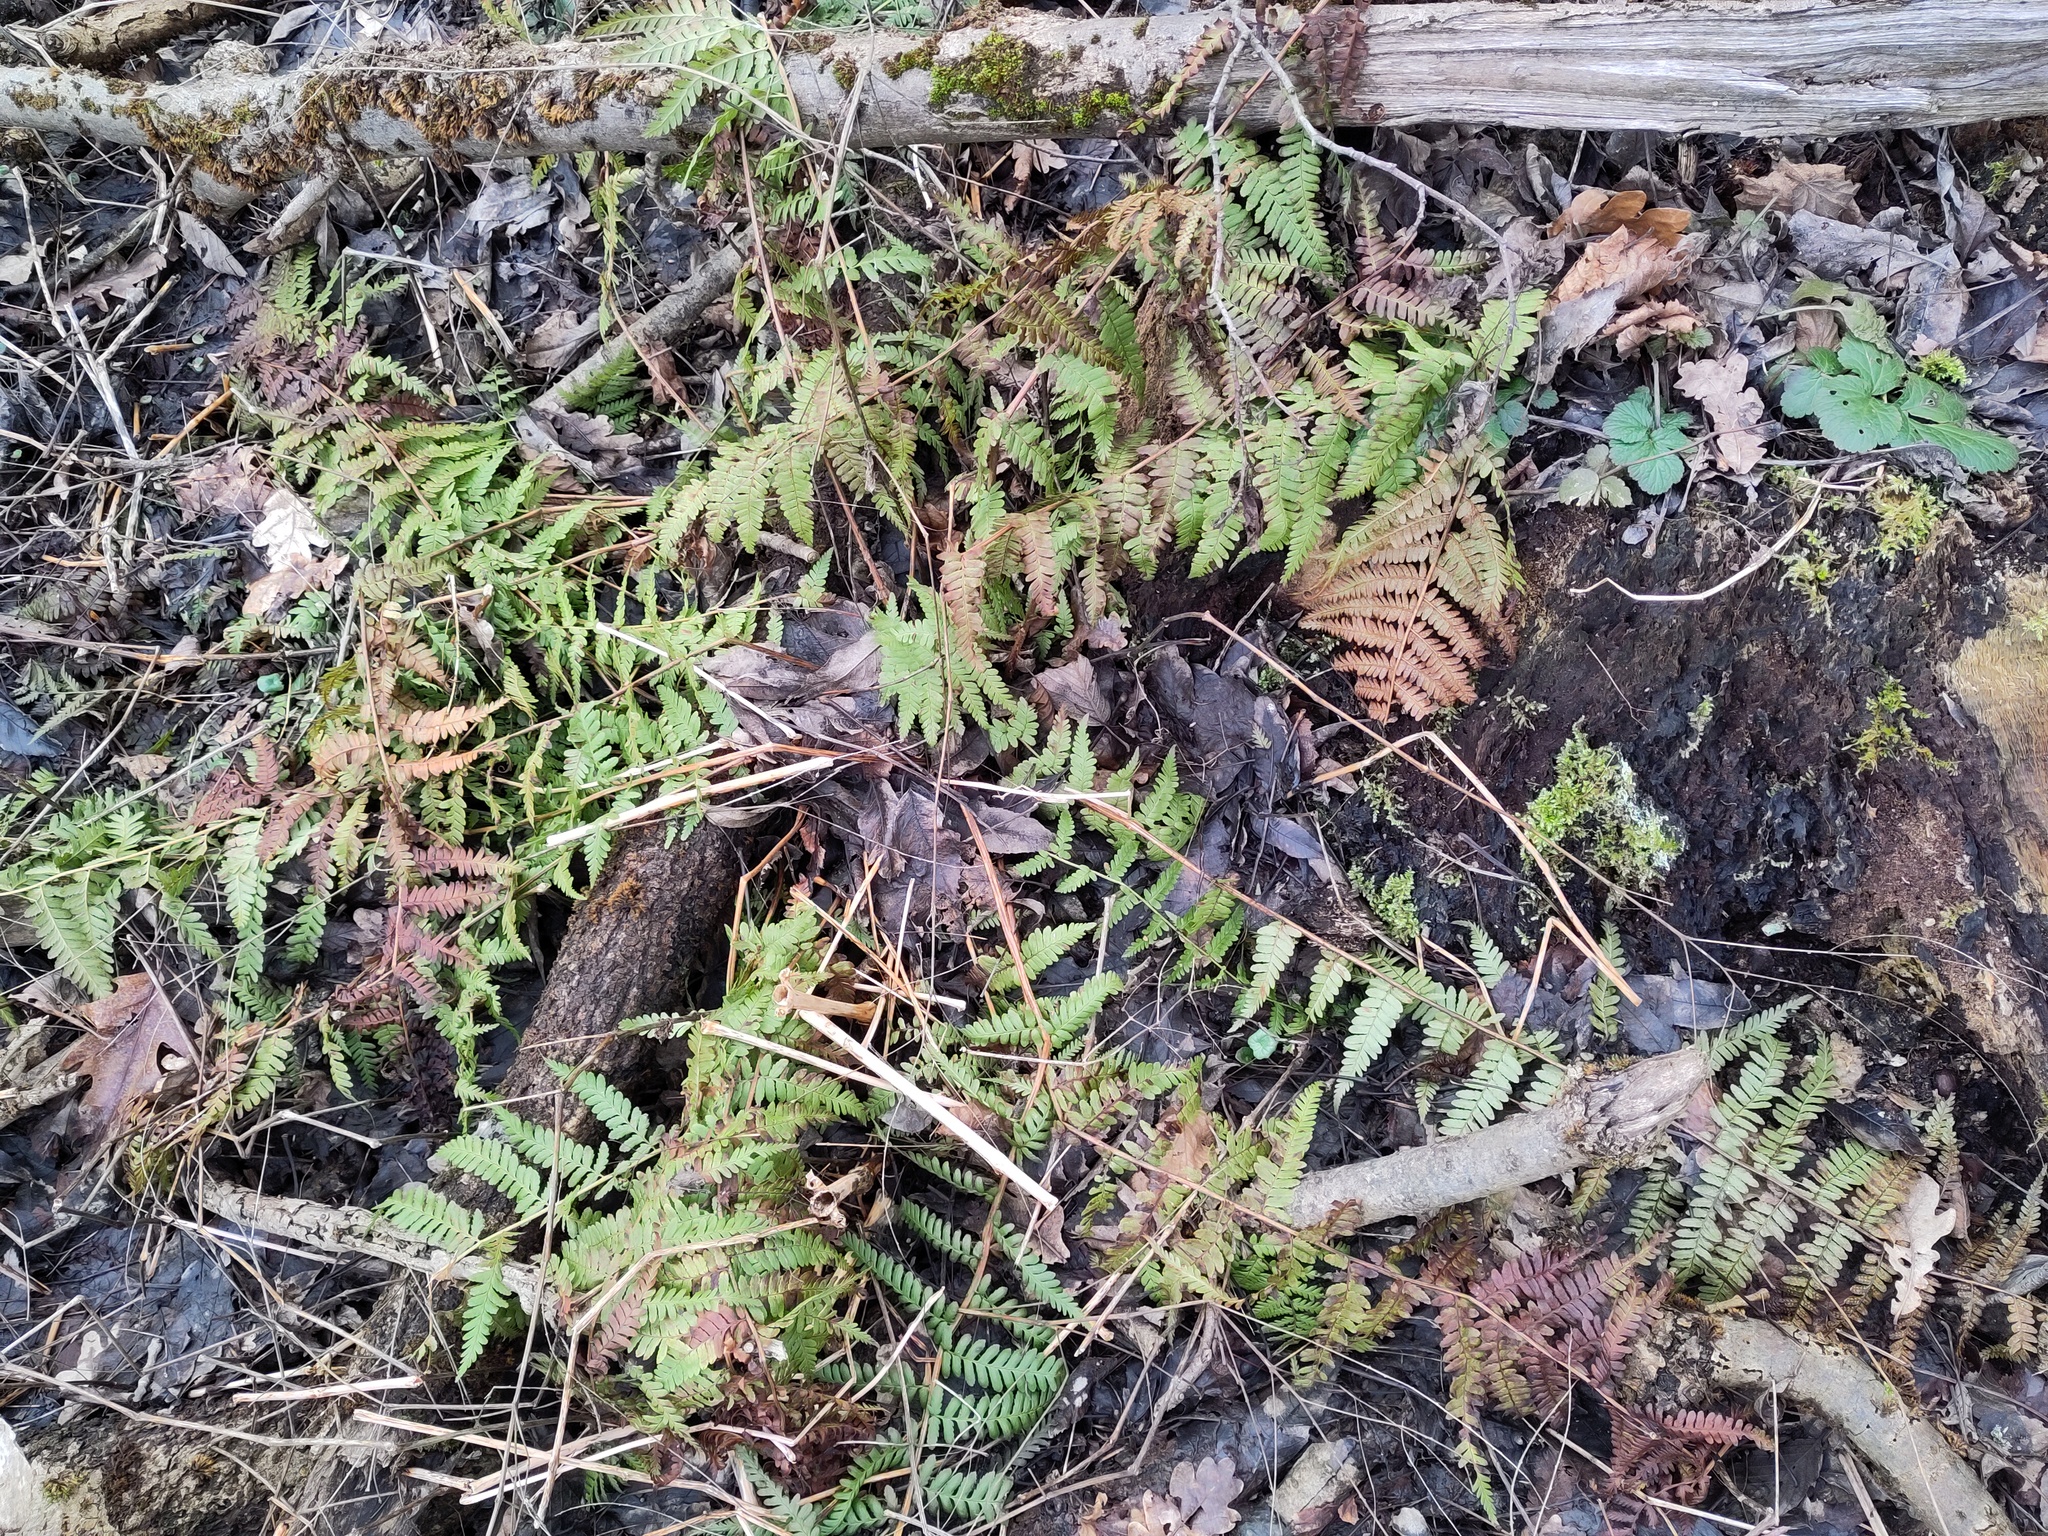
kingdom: Plantae
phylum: Tracheophyta
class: Polypodiopsida
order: Polypodiales
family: Dryopteridaceae
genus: Dryopteris
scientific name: Dryopteris filix-mas
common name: Male fern
